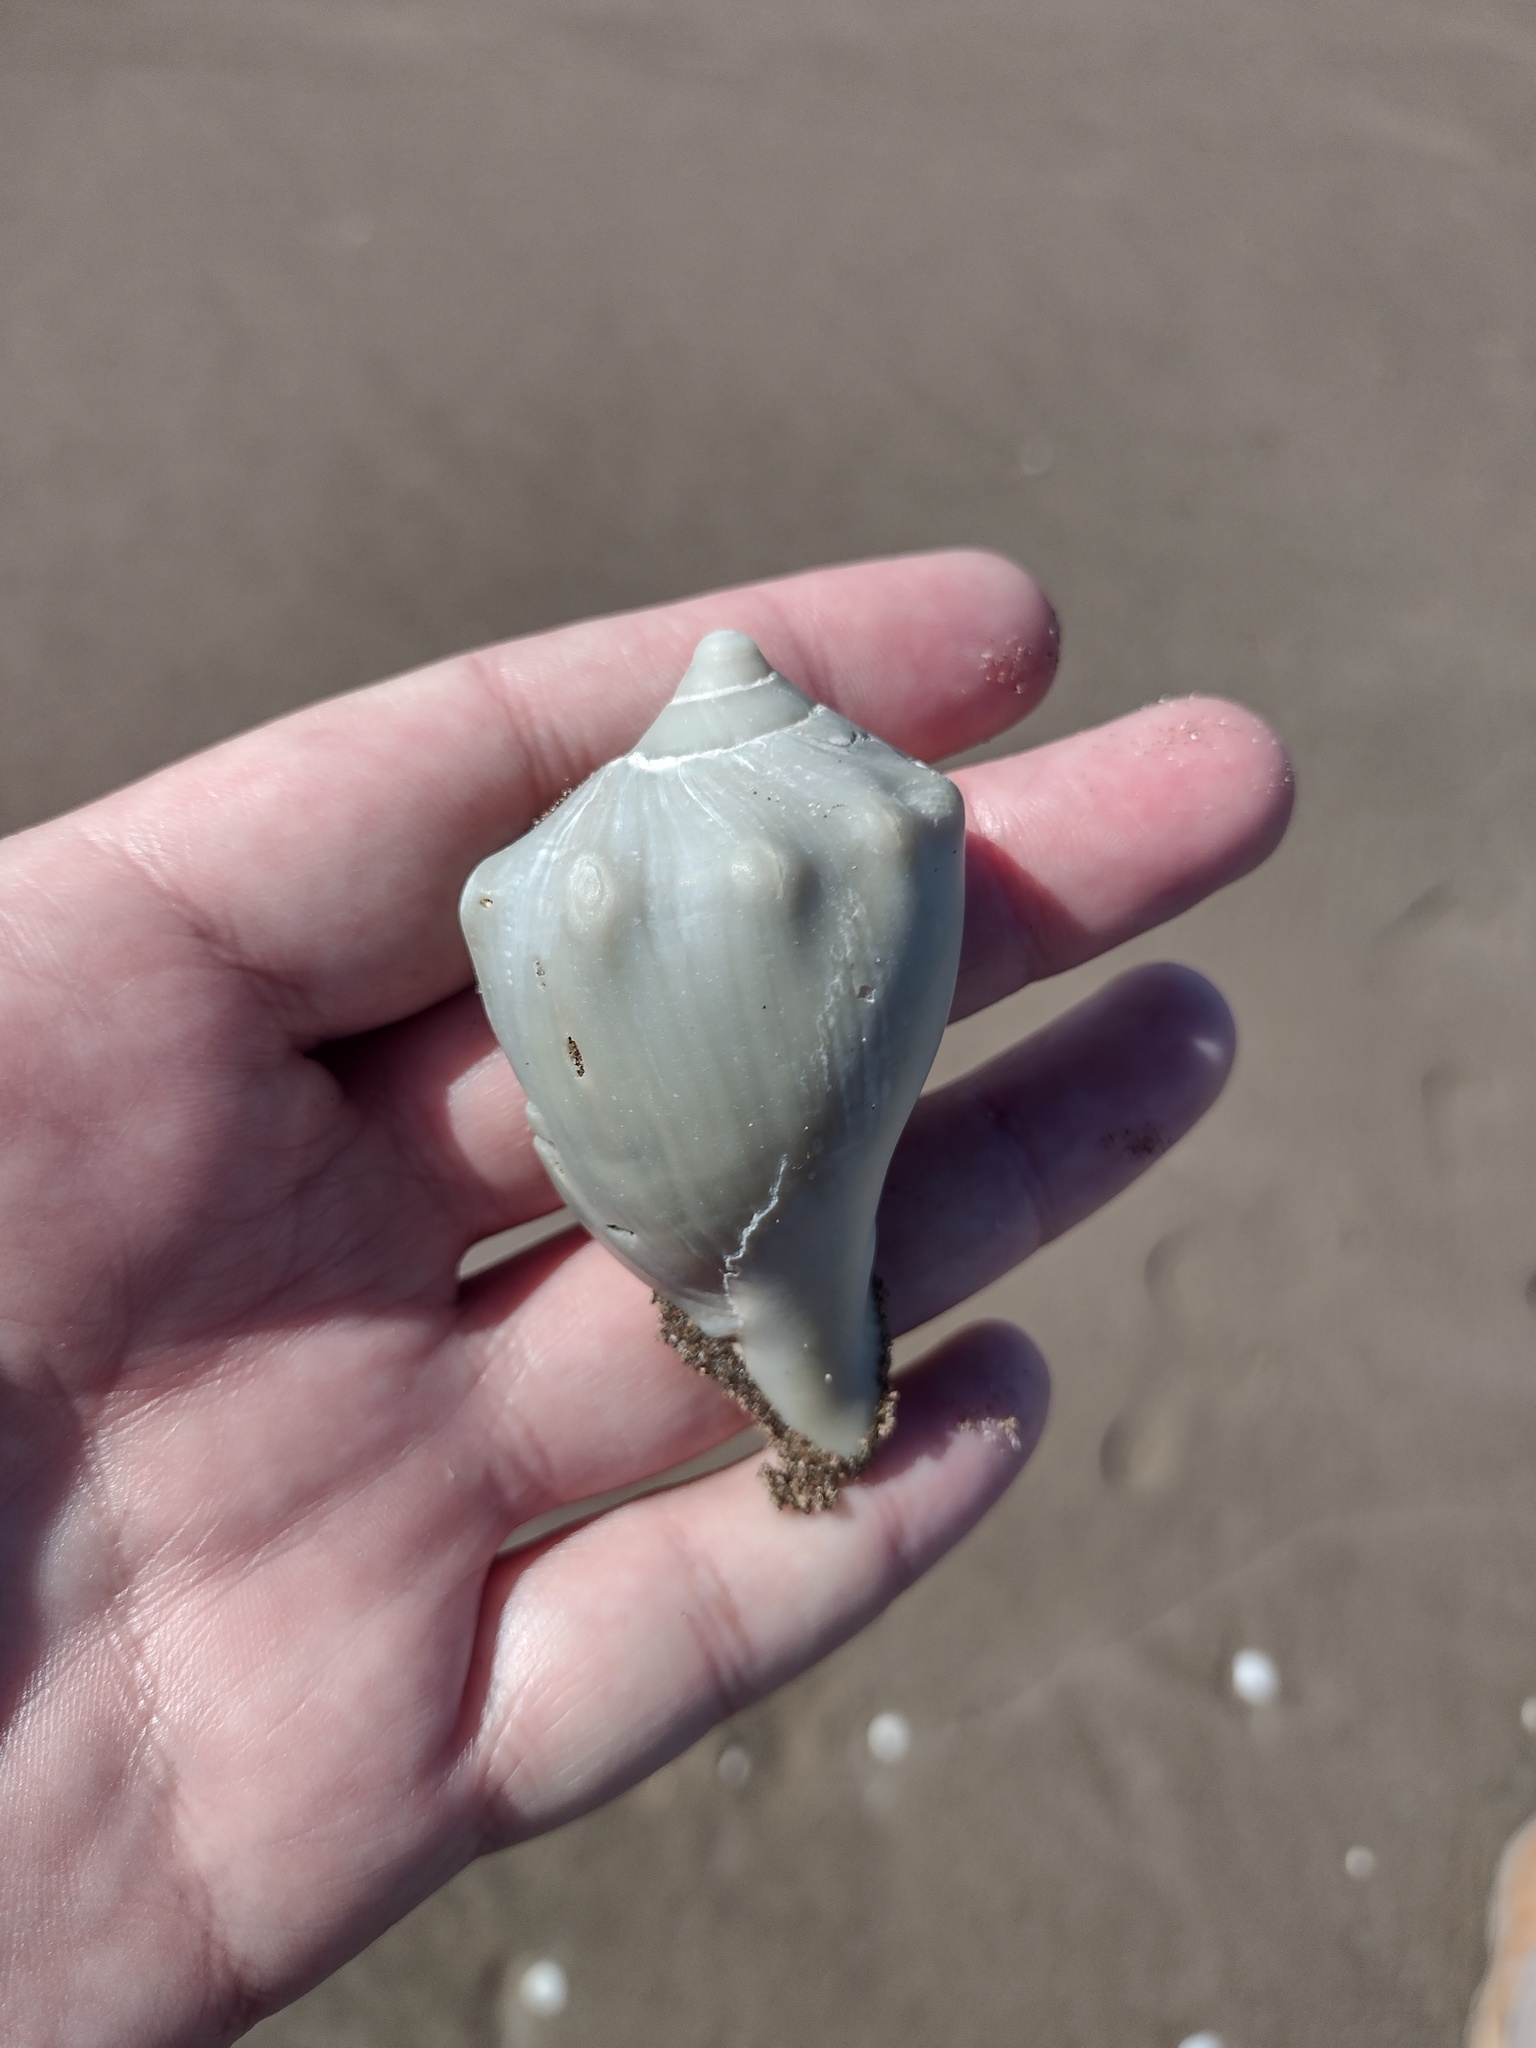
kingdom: Animalia
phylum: Mollusca
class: Gastropoda
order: Neogastropoda
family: Volutidae
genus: Pachycymbiola
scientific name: Pachycymbiola brasiliana
